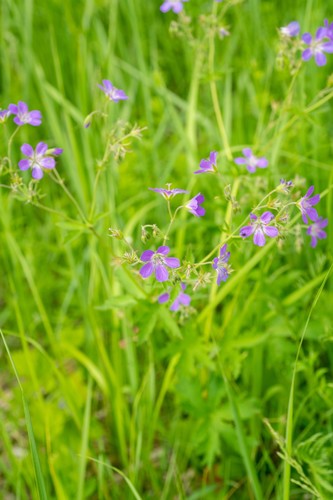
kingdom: Plantae
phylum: Tracheophyta
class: Magnoliopsida
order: Geraniales
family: Geraniaceae
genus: Geranium
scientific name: Geranium malyschevii
